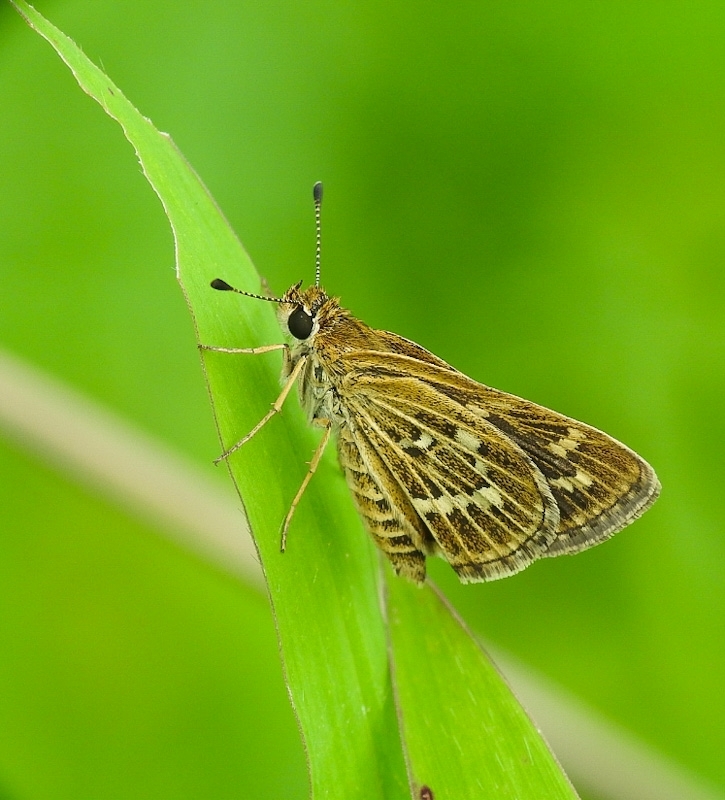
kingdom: Animalia
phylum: Arthropoda
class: Insecta
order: Lepidoptera
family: Hesperiidae
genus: Taractrocera
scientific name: Taractrocera maevius
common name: Common grass-dart
